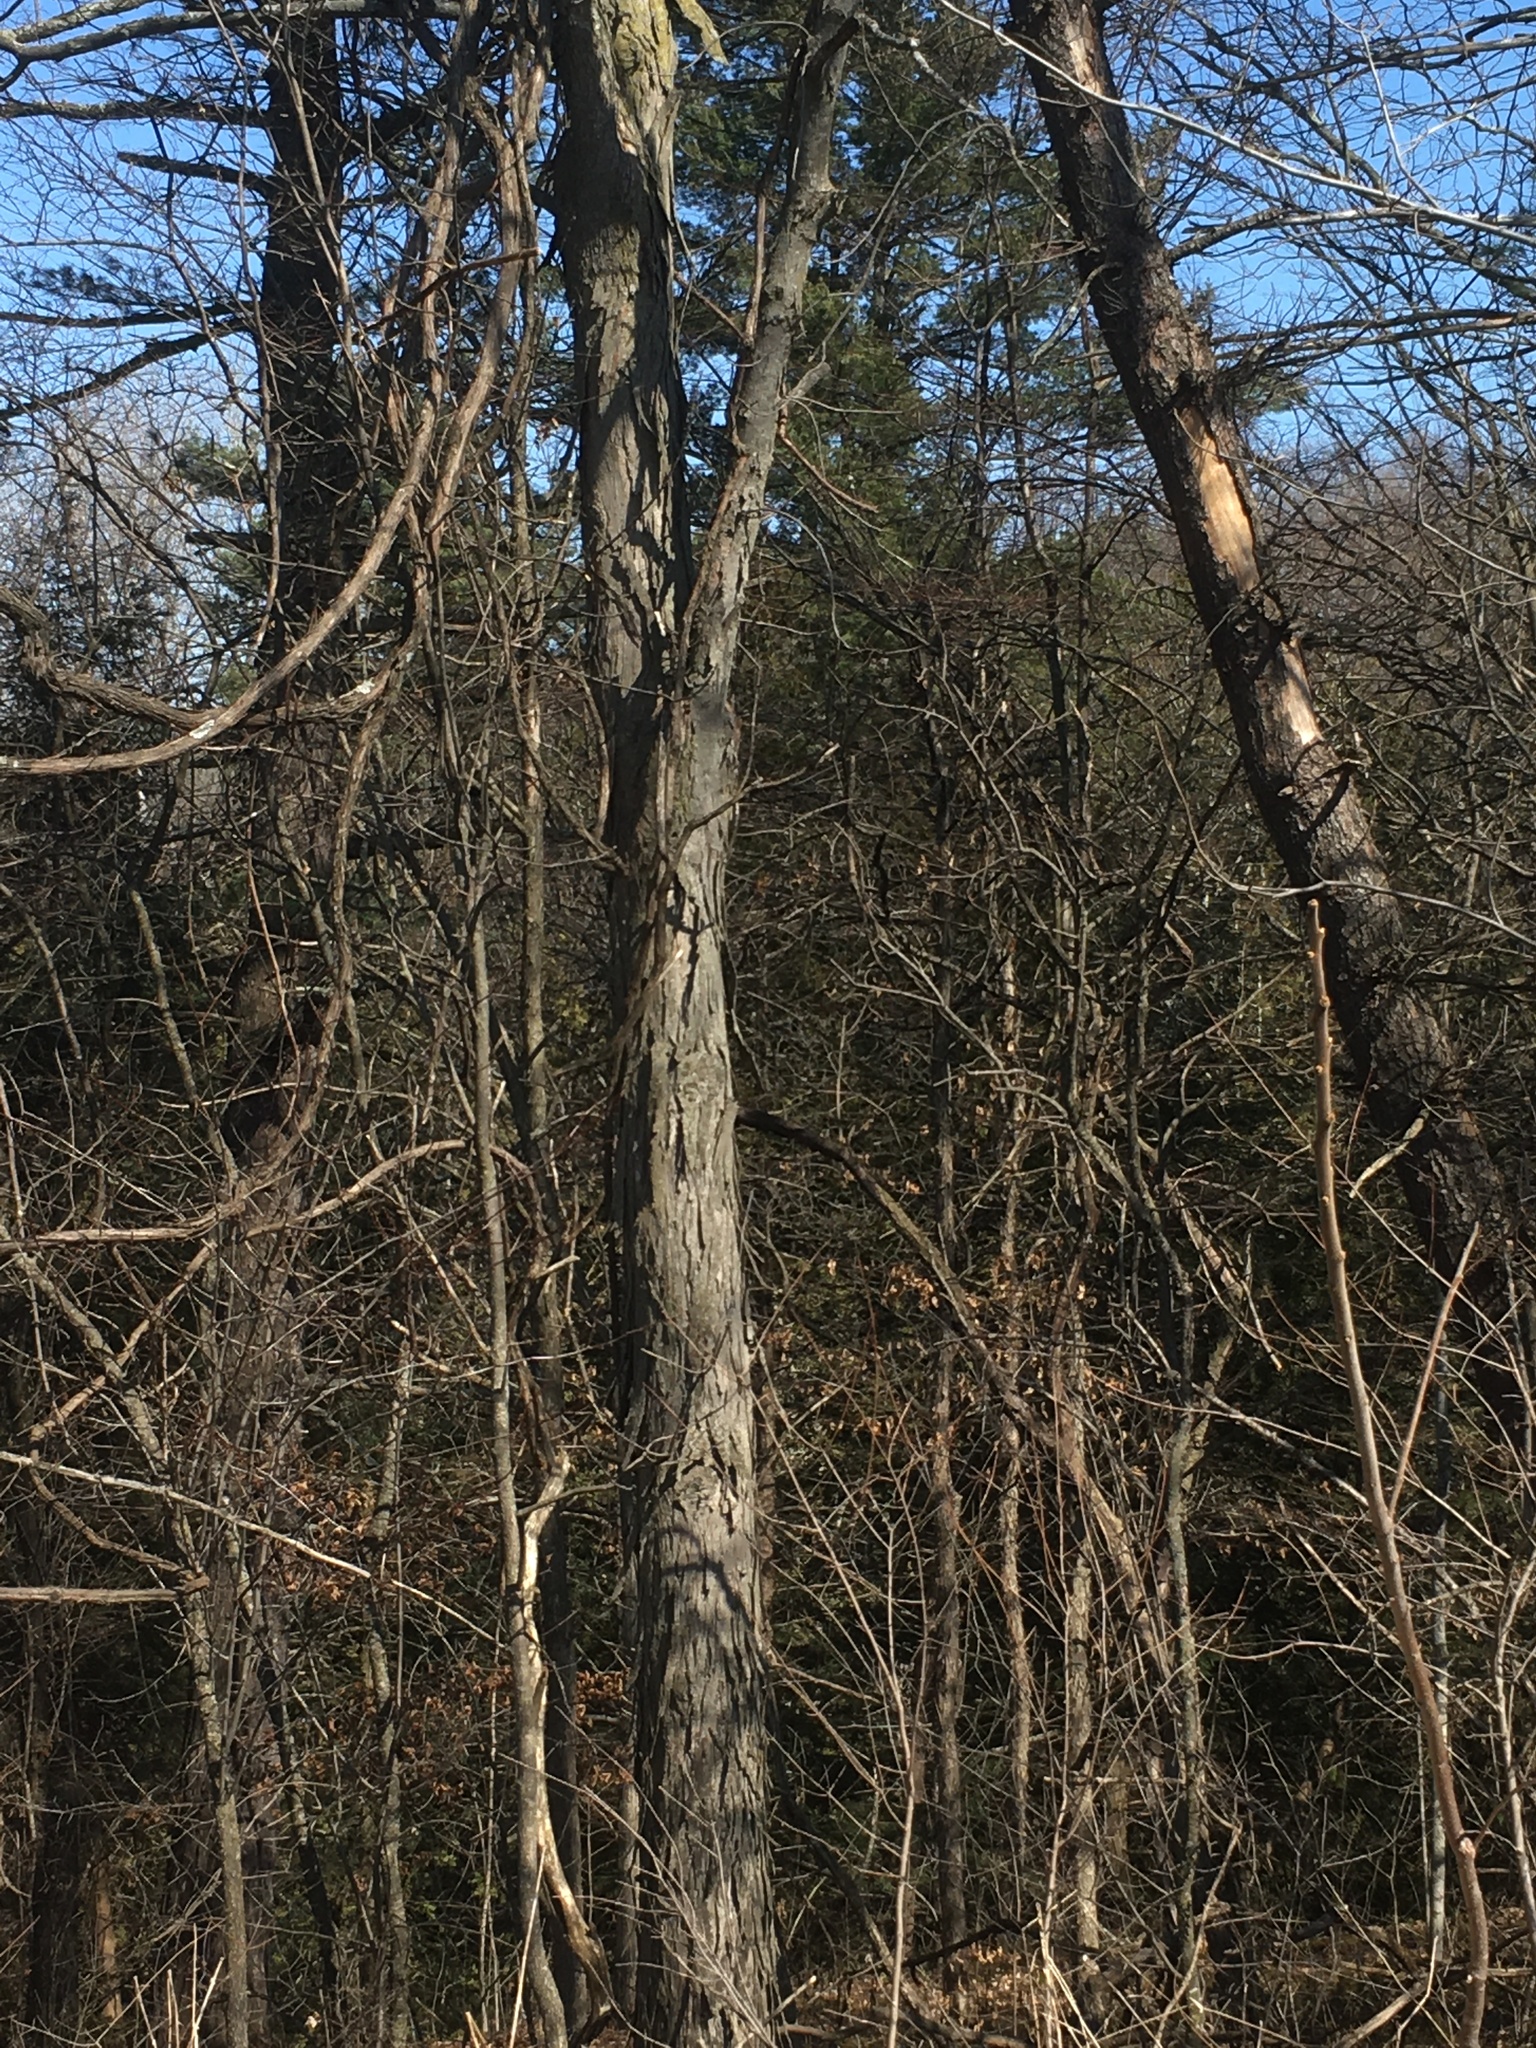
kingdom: Plantae
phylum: Tracheophyta
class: Magnoliopsida
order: Fagales
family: Juglandaceae
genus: Carya
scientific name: Carya ovata
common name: Shagbark hickory
